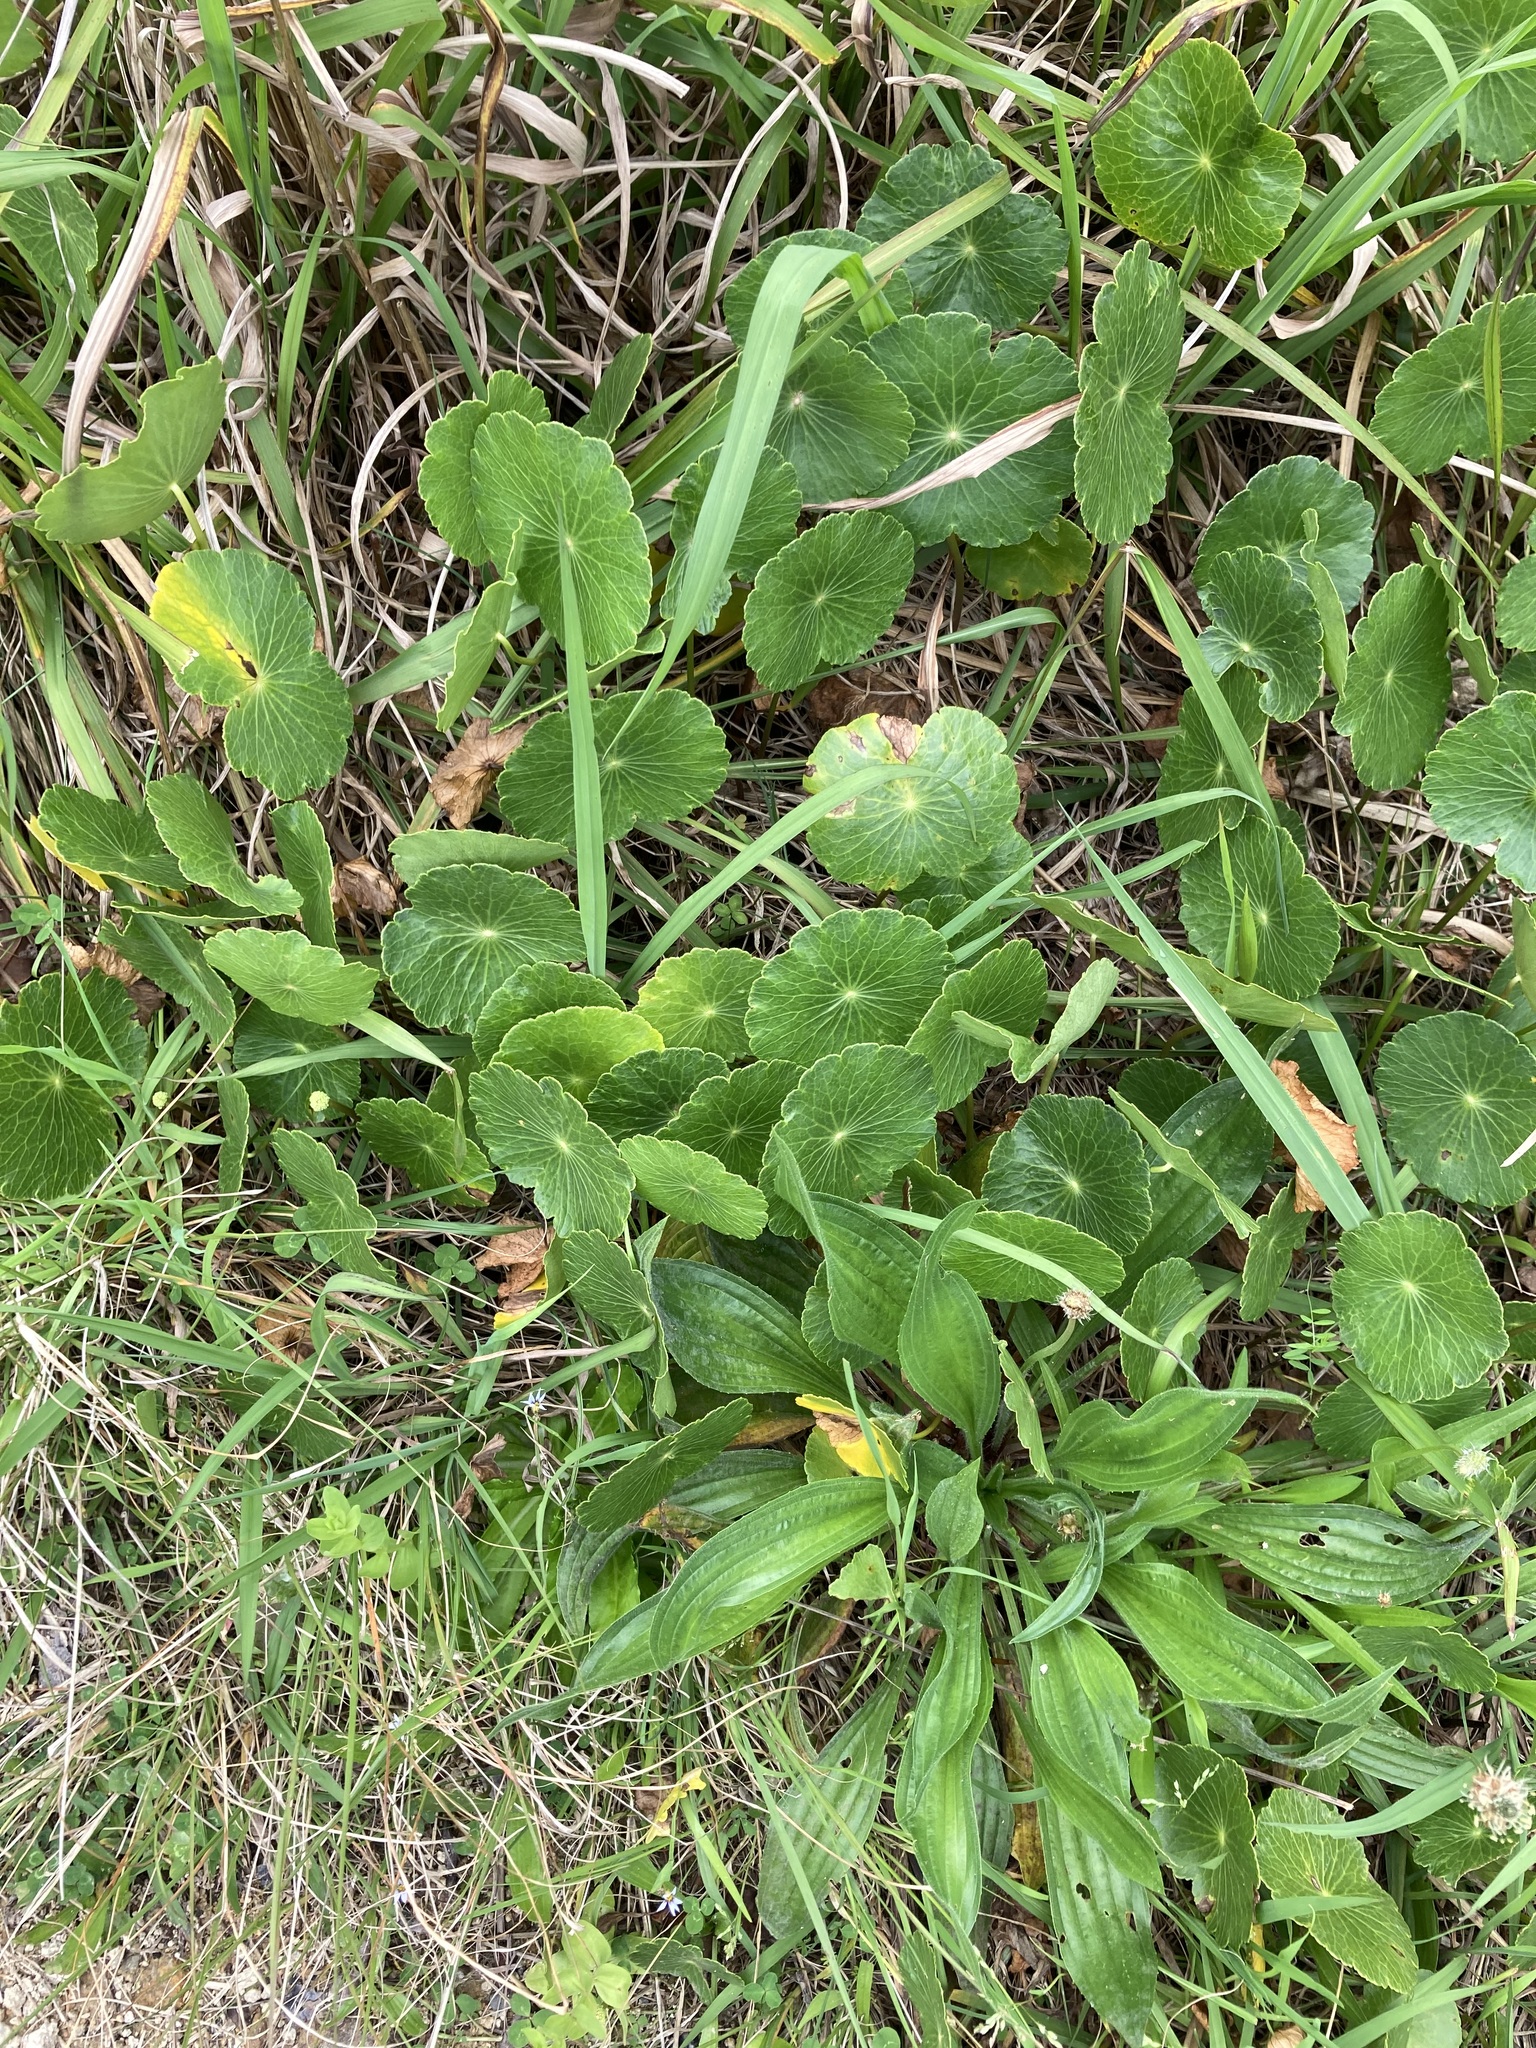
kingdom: Plantae
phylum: Tracheophyta
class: Magnoliopsida
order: Apiales
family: Araliaceae
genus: Hydrocotyle
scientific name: Hydrocotyle bonariensis
